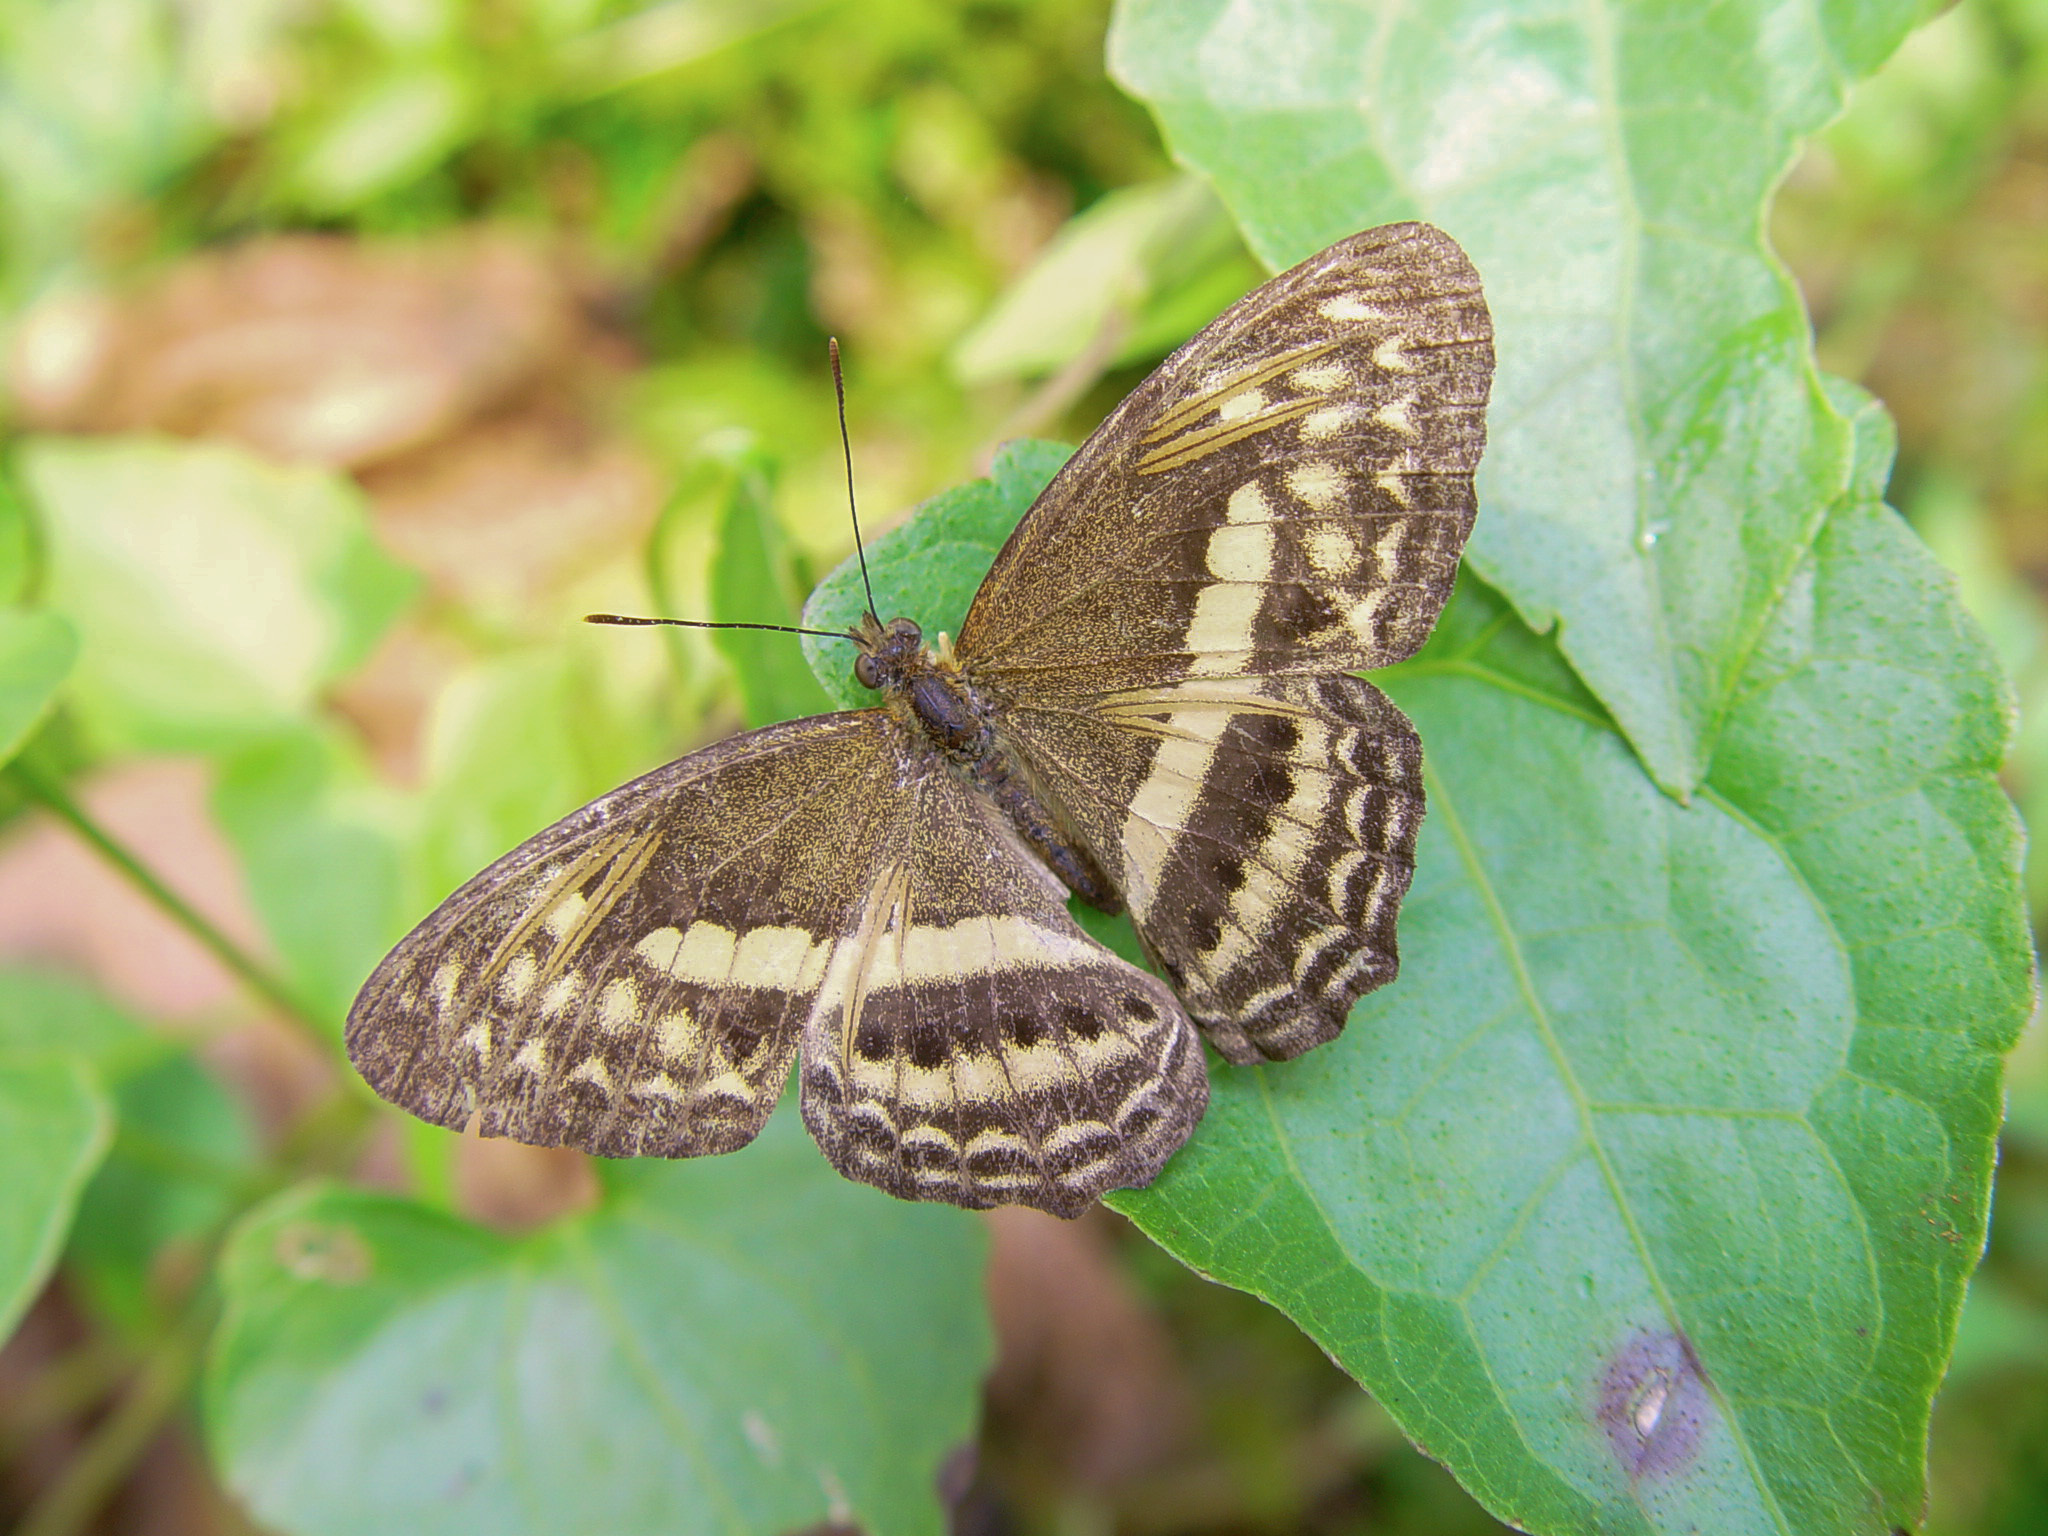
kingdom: Animalia
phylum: Arthropoda
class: Insecta
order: Lepidoptera
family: Nymphalidae
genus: Algia
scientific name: Algia fasciata
